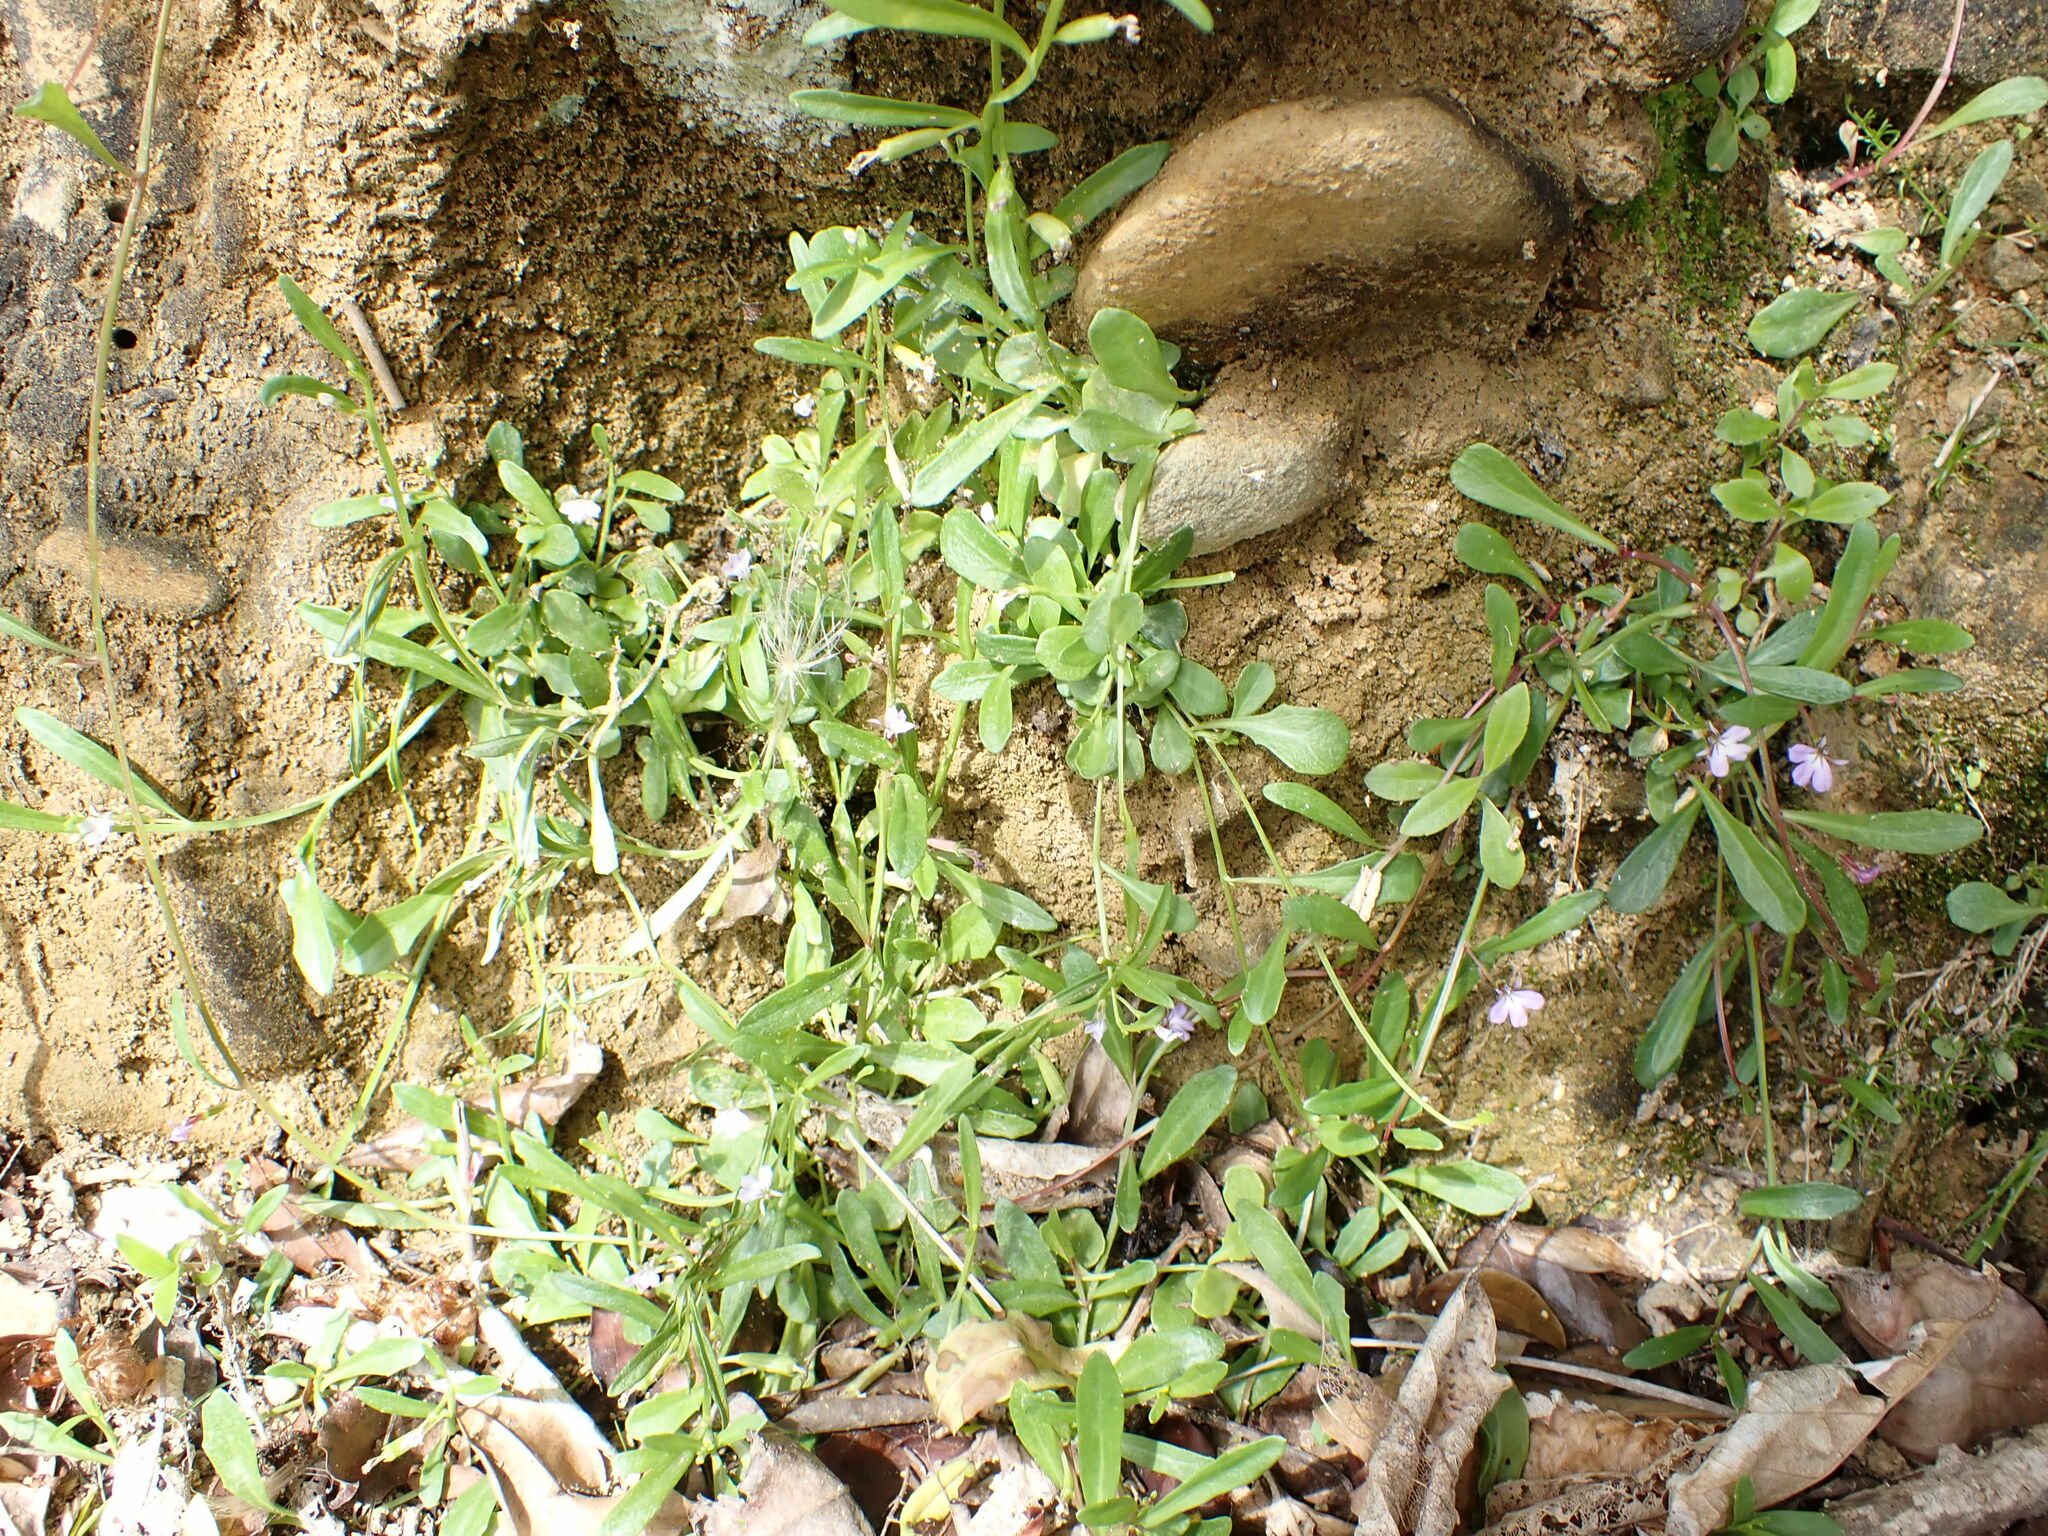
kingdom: Plantae
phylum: Tracheophyta
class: Magnoliopsida
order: Asterales
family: Campanulaceae
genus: Lobelia
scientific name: Lobelia anceps
